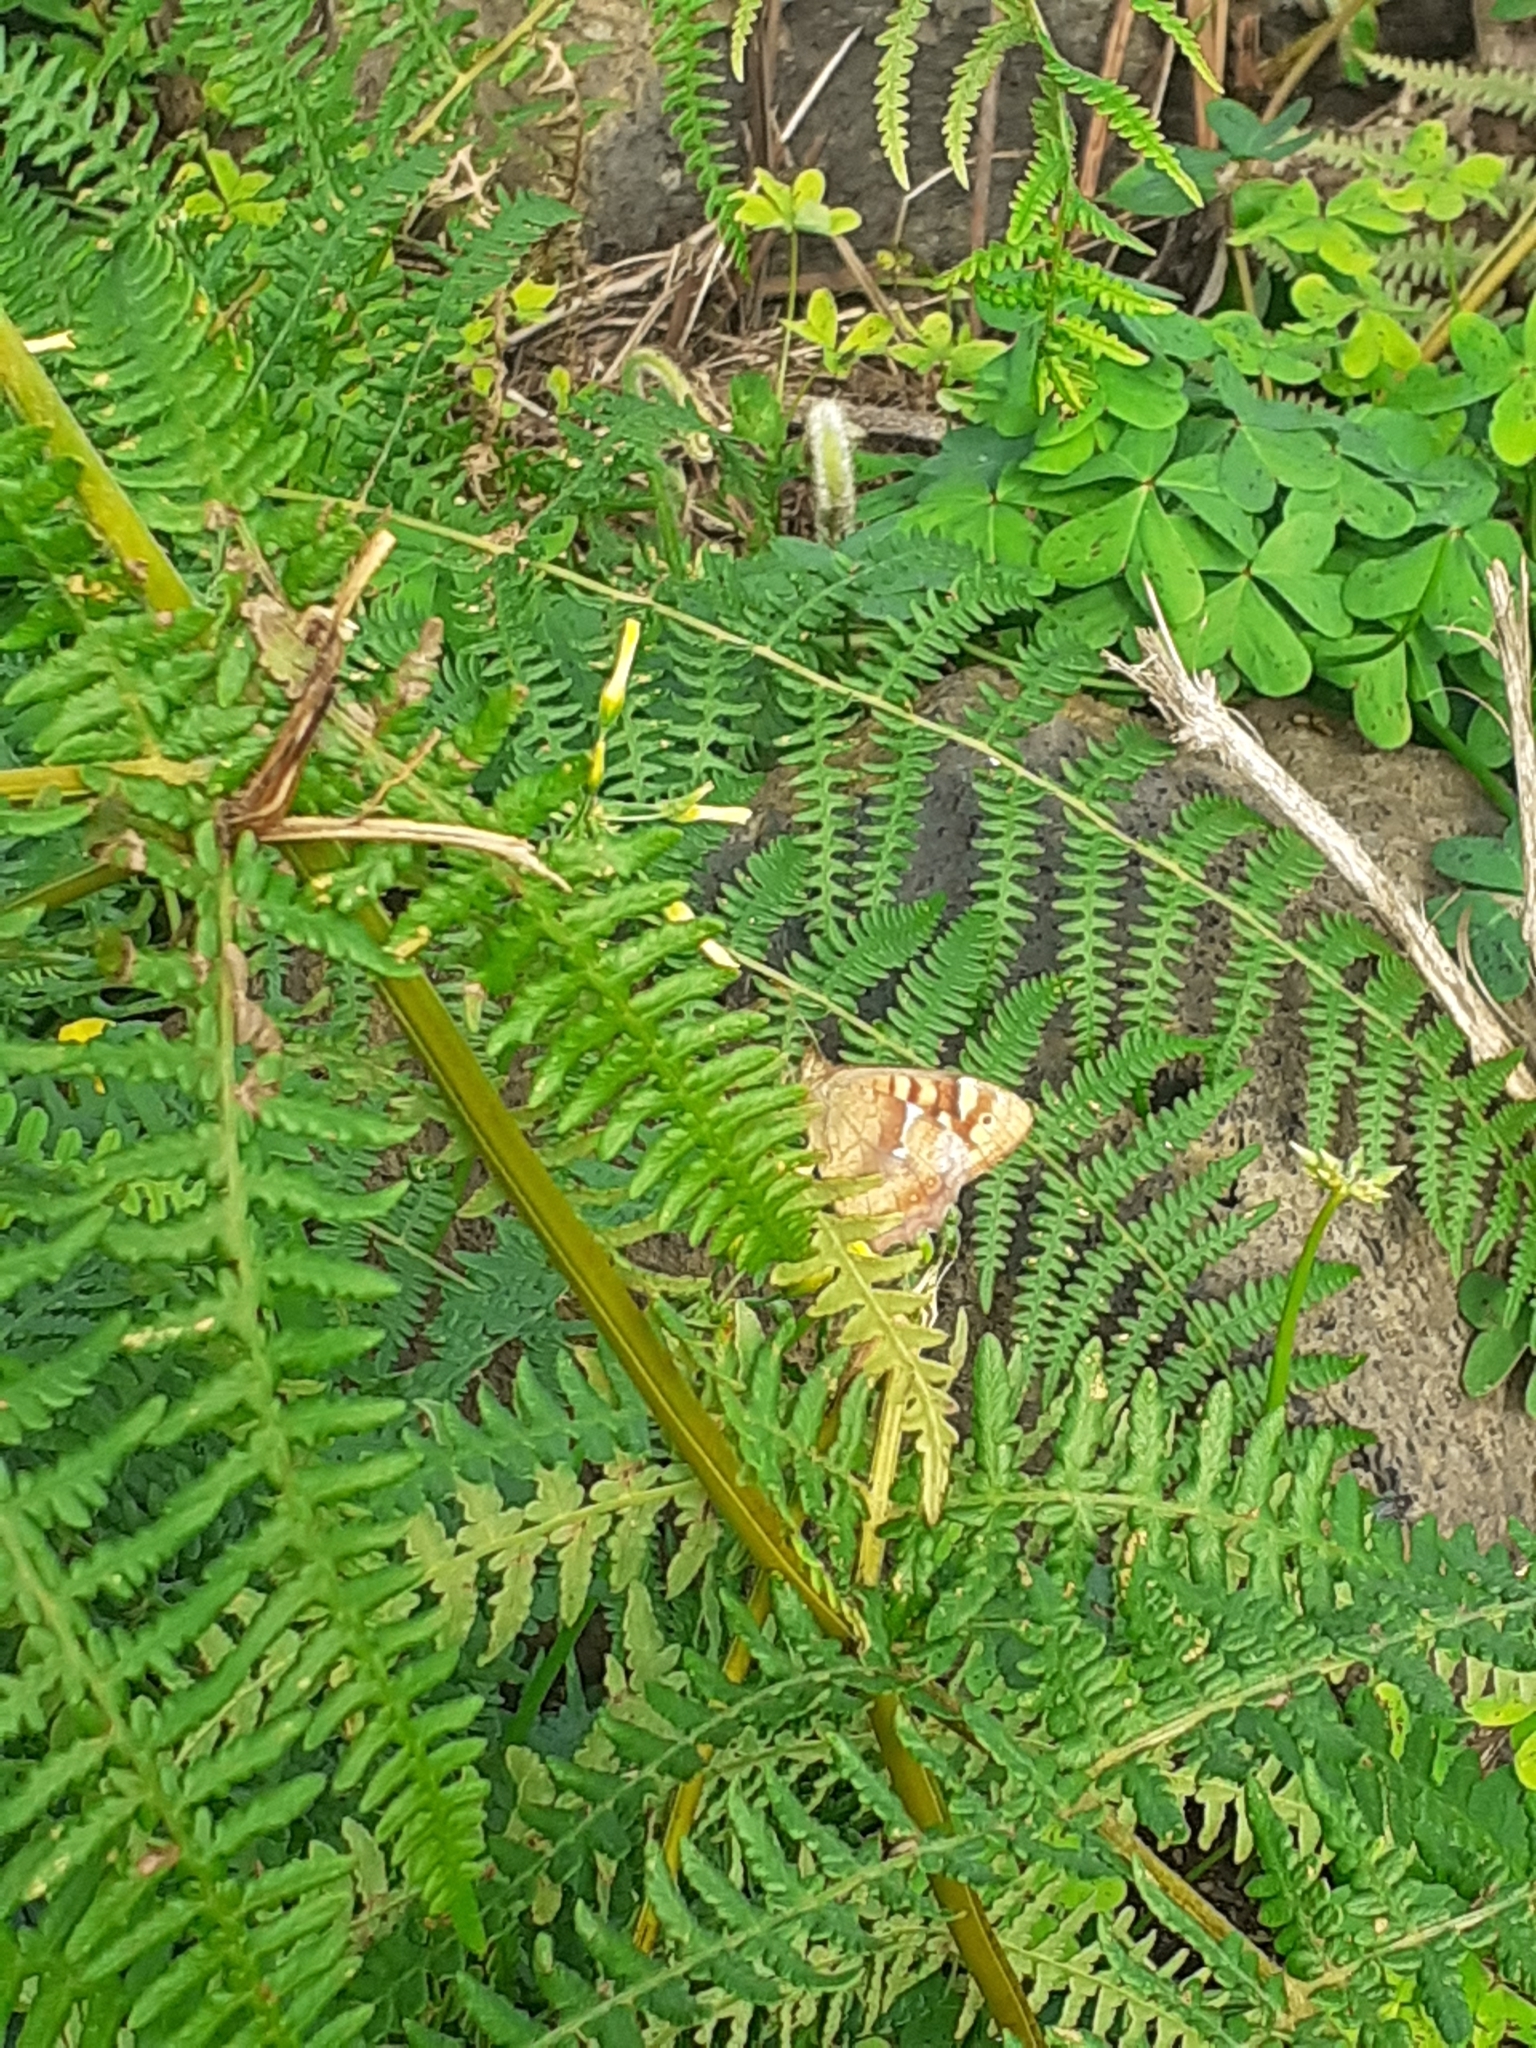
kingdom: Animalia
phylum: Arthropoda
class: Insecta
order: Lepidoptera
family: Nymphalidae
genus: Pararge
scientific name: Pararge aegeria
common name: Speckled wood
